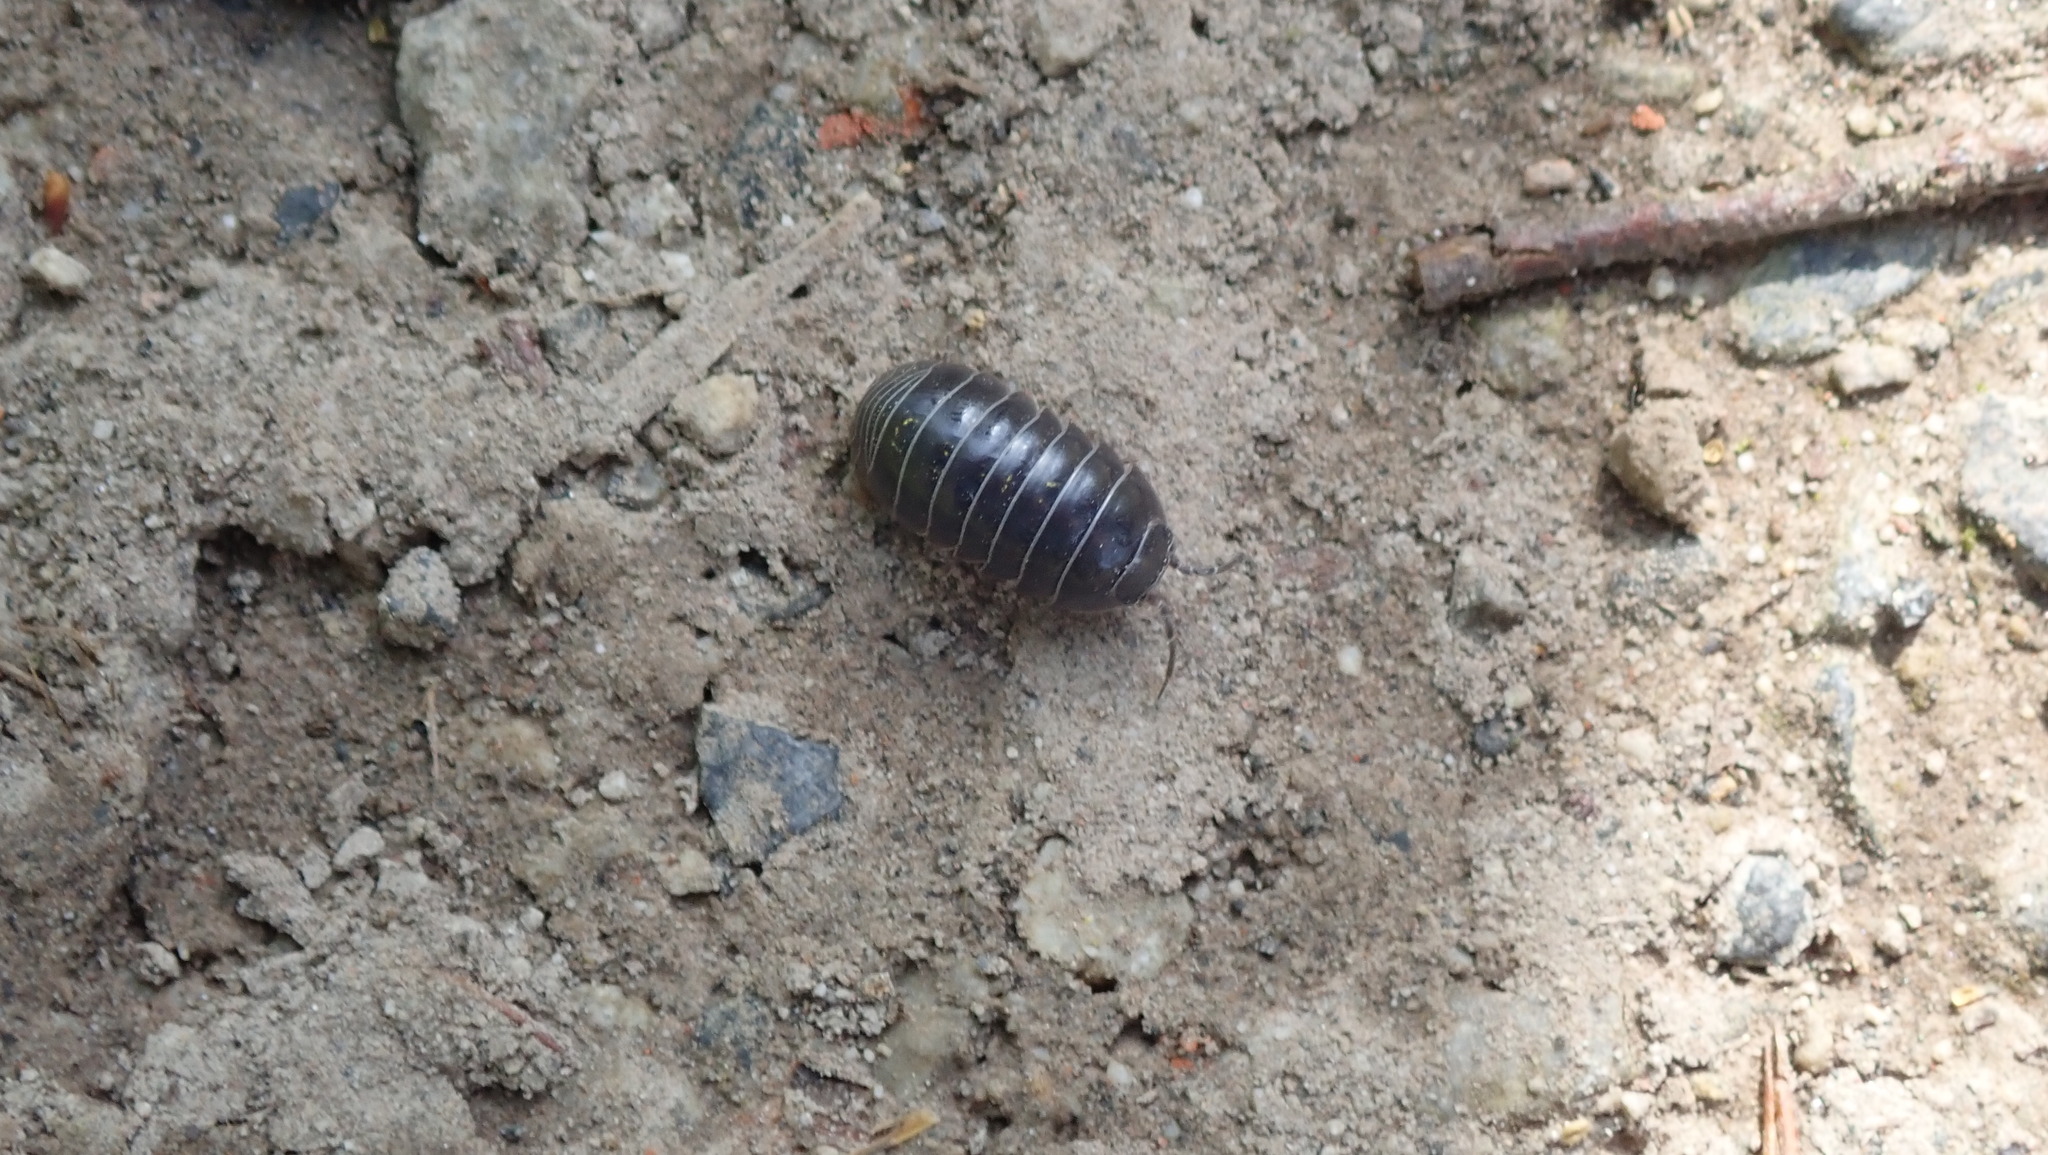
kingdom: Animalia
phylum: Arthropoda
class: Malacostraca
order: Isopoda
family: Armadillidiidae
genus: Armadillidium
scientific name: Armadillidium vulgare
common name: Common pill woodlouse
